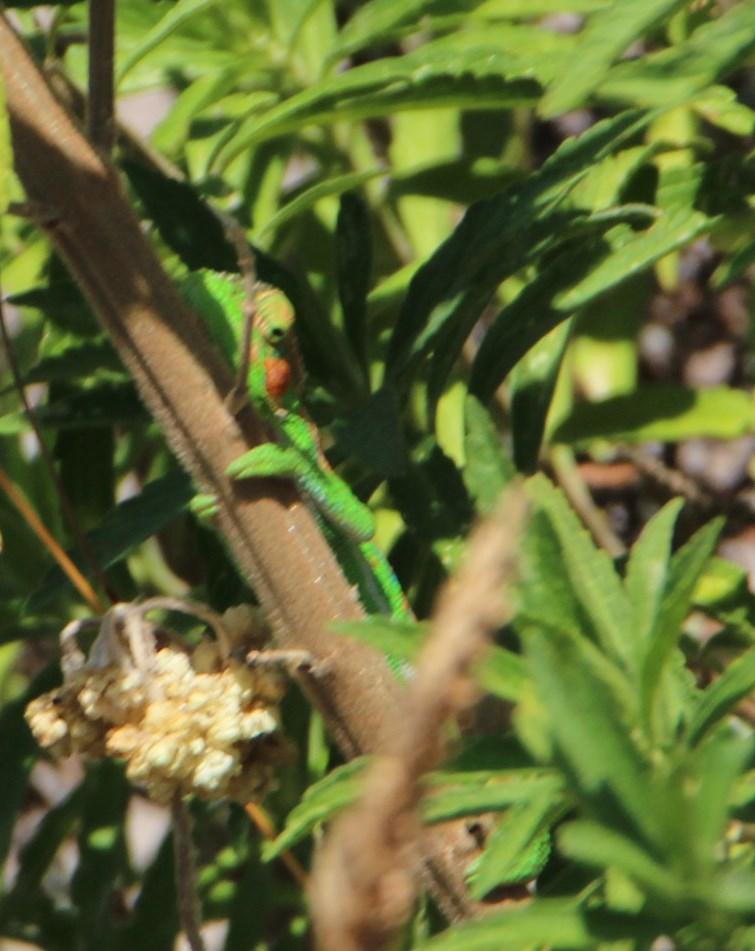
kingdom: Animalia
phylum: Chordata
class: Squamata
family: Chamaeleonidae
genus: Bradypodion
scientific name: Bradypodion pumilum
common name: Cape dwarf chameleon
